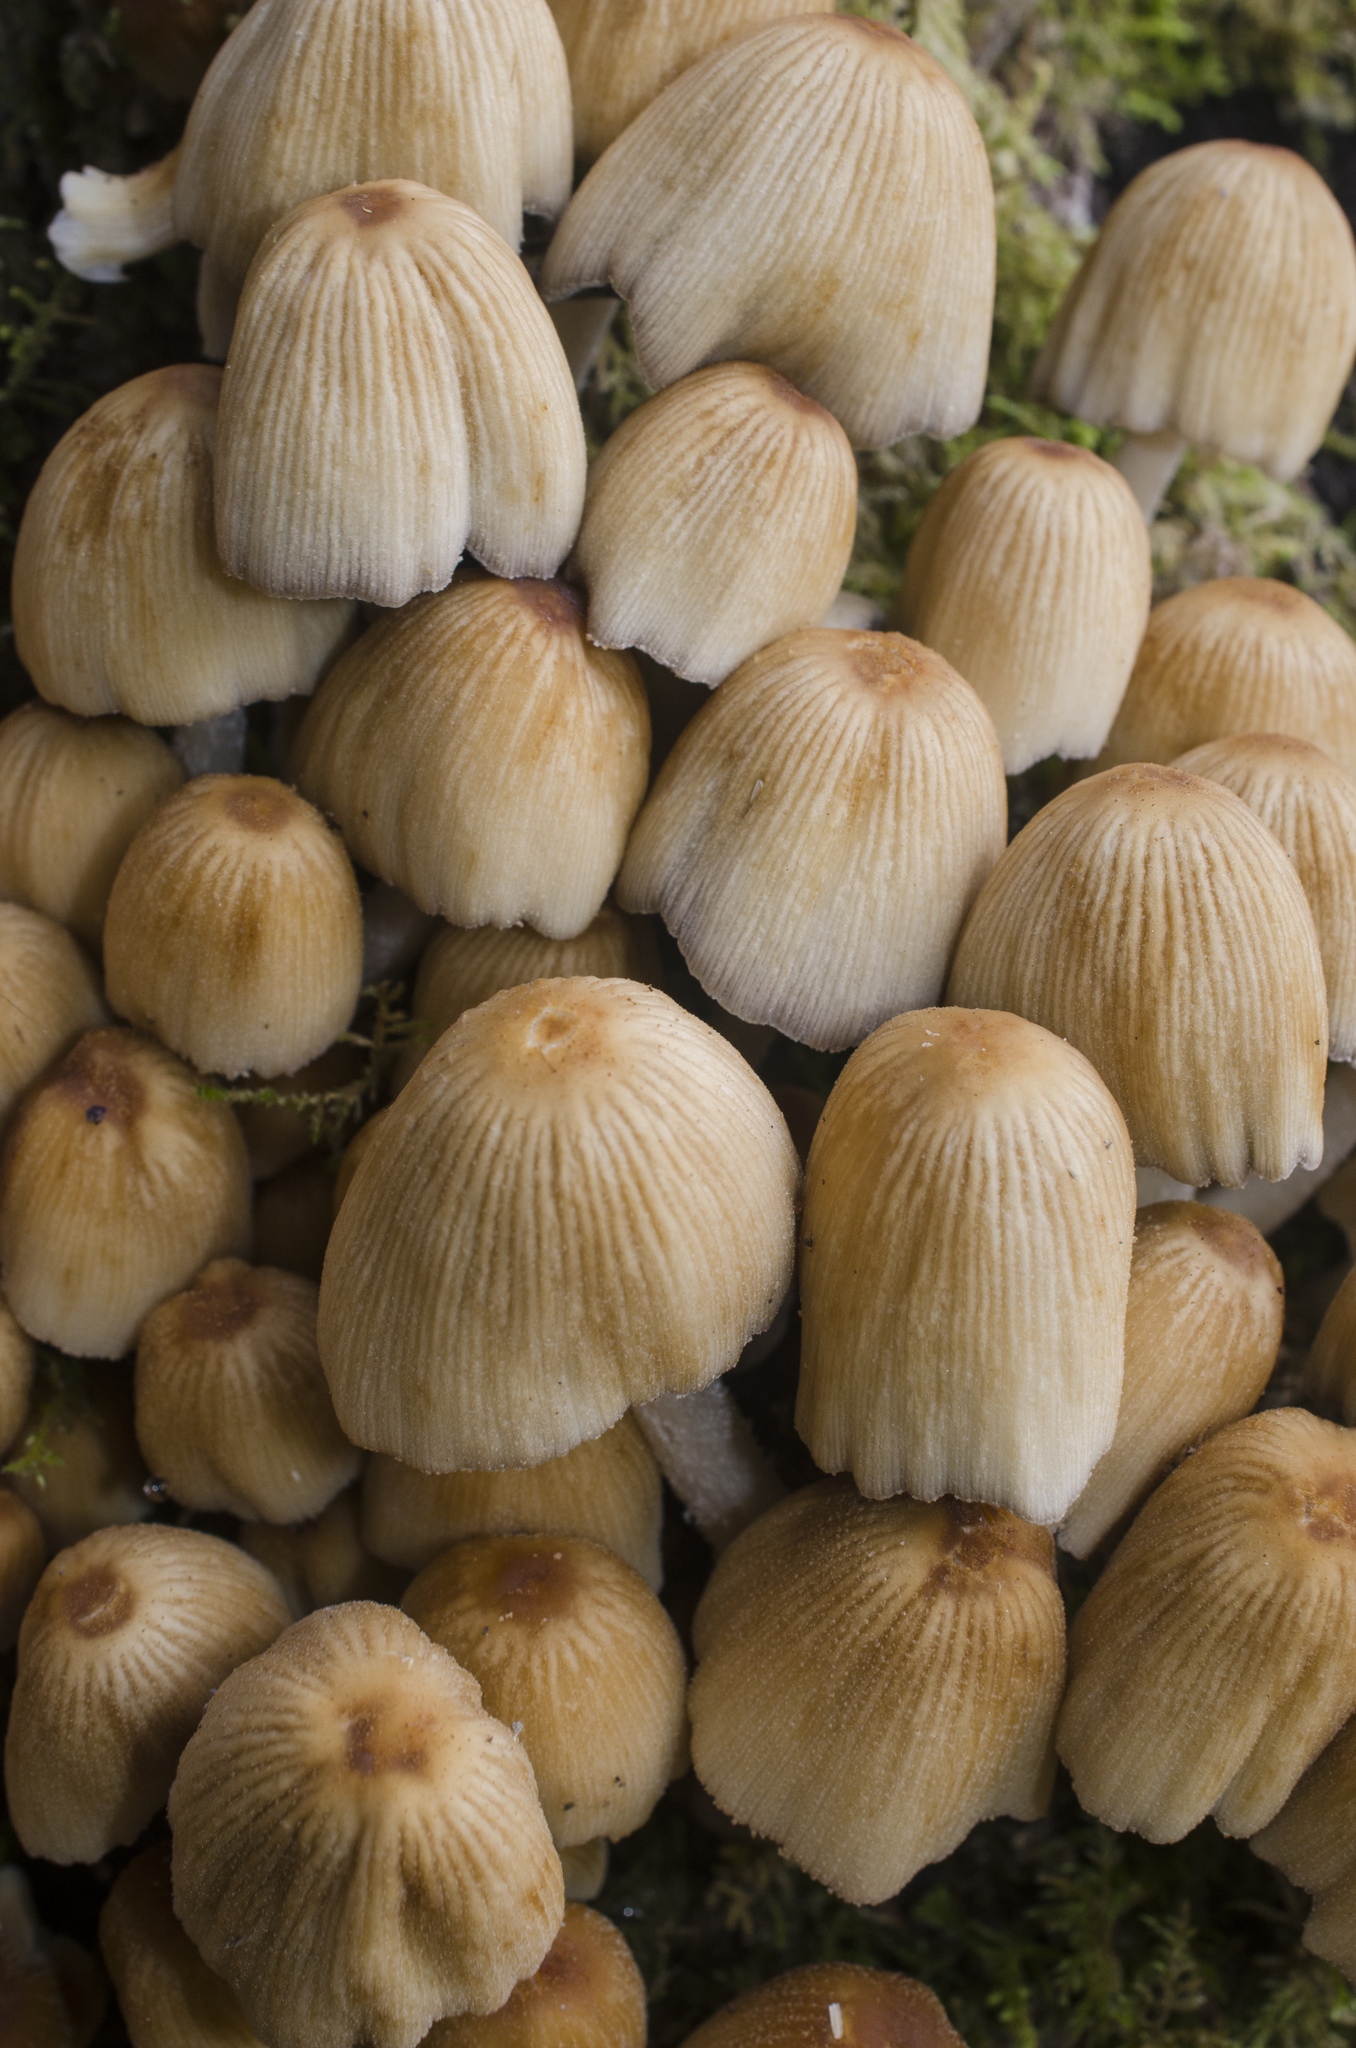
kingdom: Fungi
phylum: Basidiomycota
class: Agaricomycetes
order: Agaricales
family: Psathyrellaceae
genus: Coprinellus
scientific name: Coprinellus micaceus
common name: Glistening ink-cap
